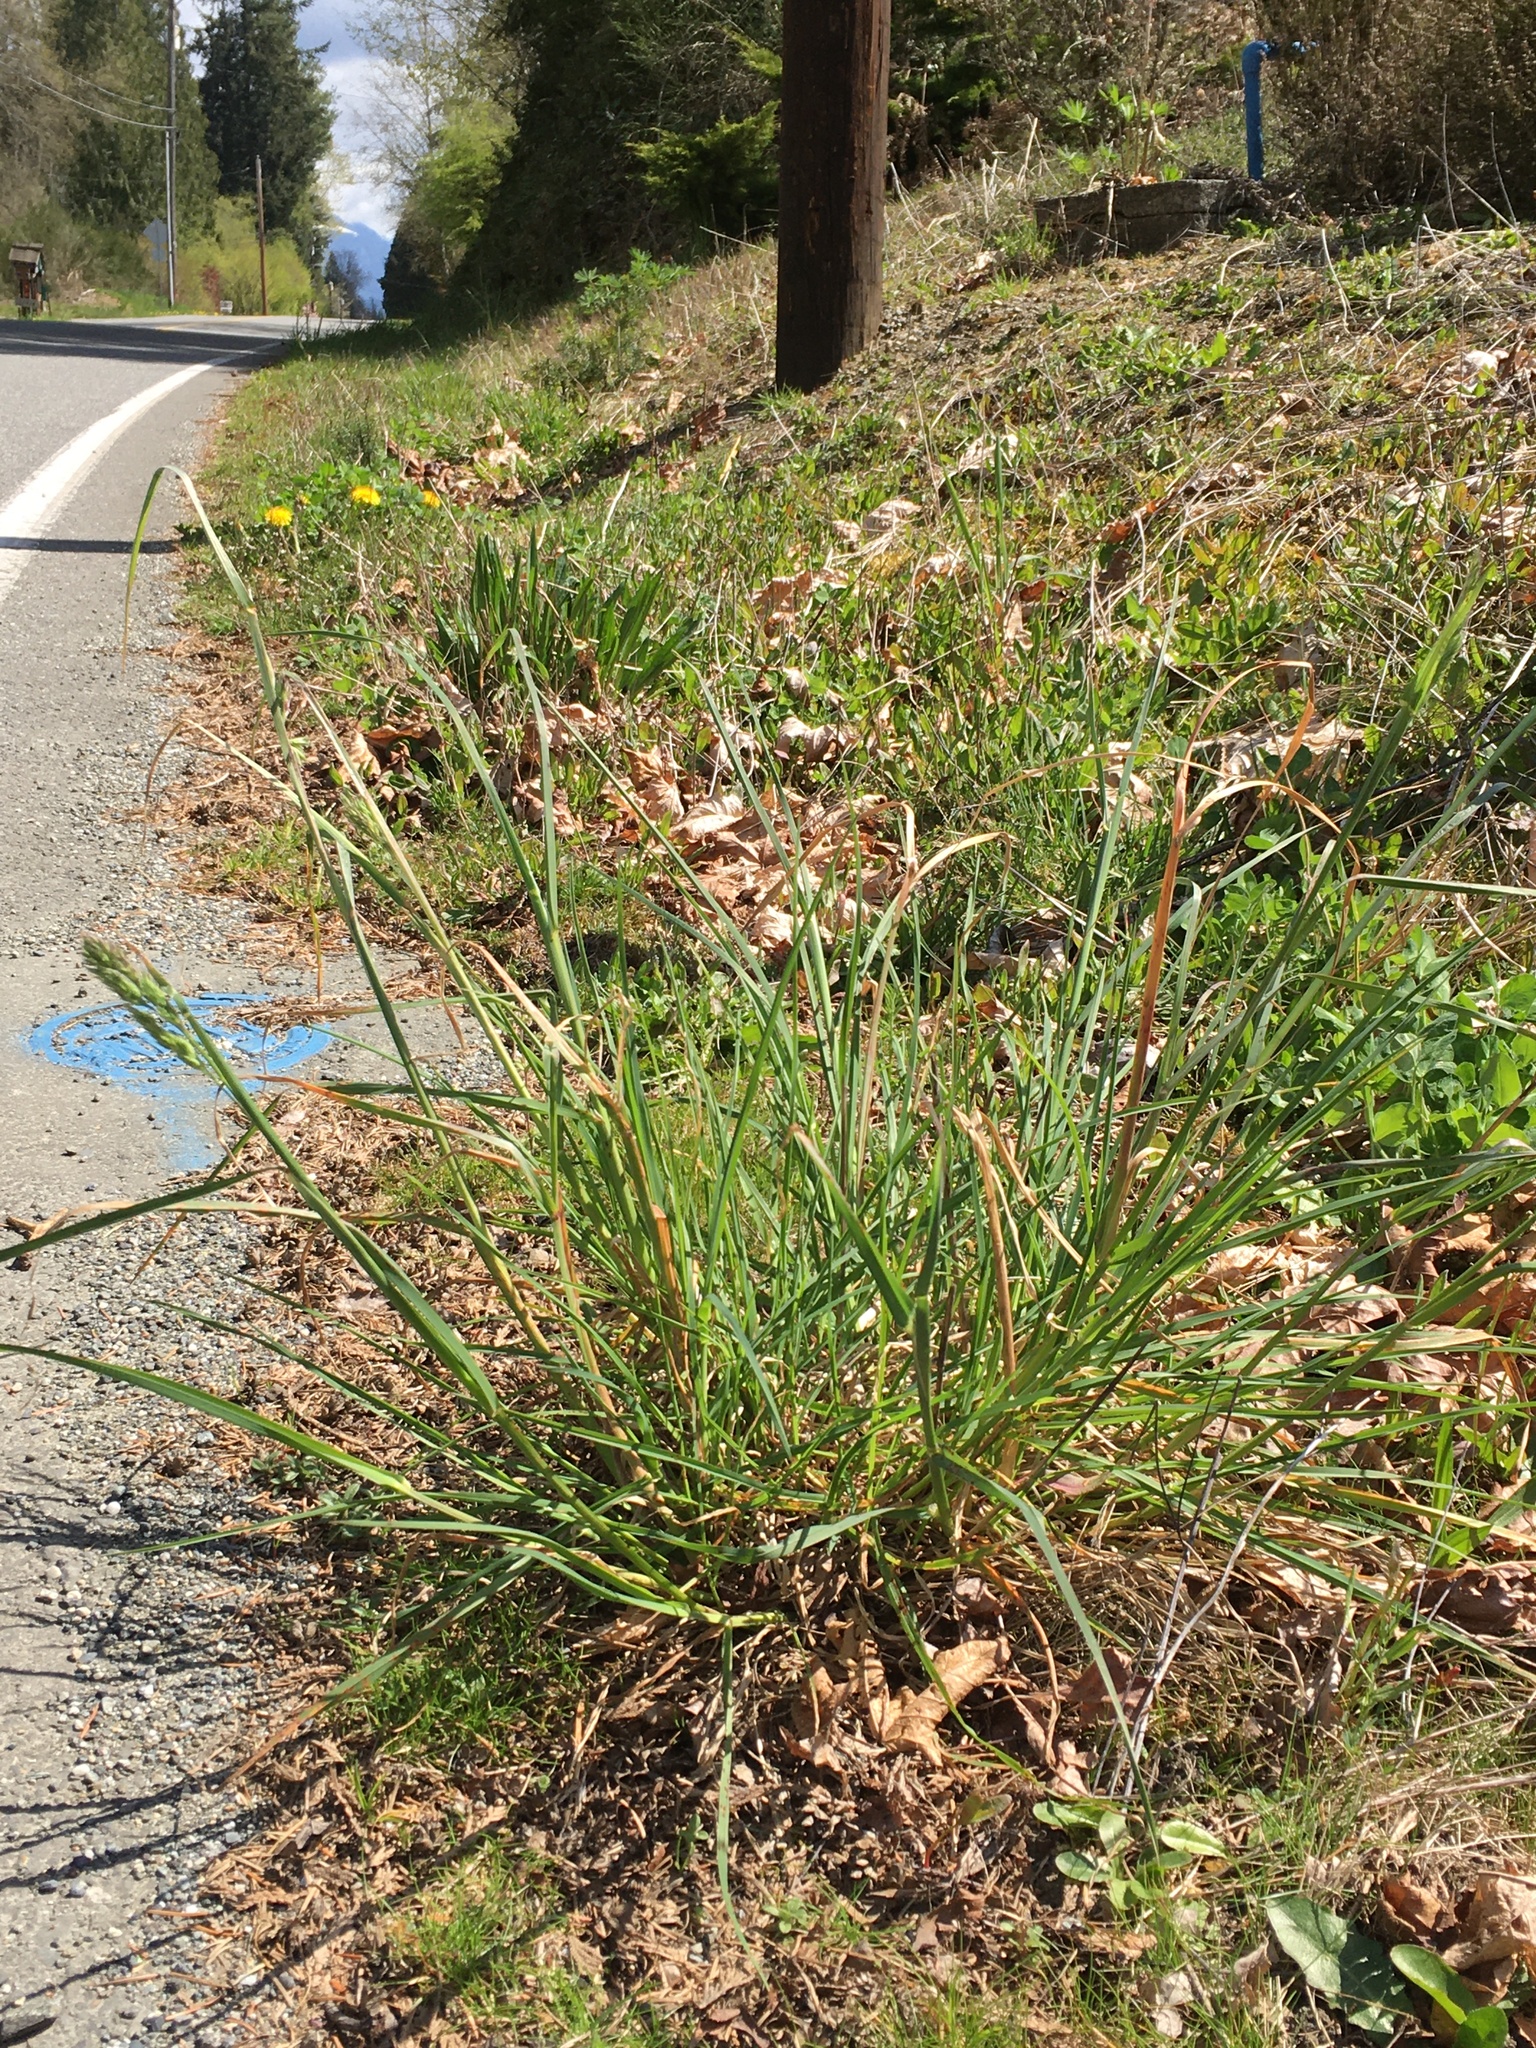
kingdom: Plantae
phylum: Tracheophyta
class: Liliopsida
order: Poales
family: Poaceae
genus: Dactylis
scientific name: Dactylis glomerata
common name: Orchardgrass
